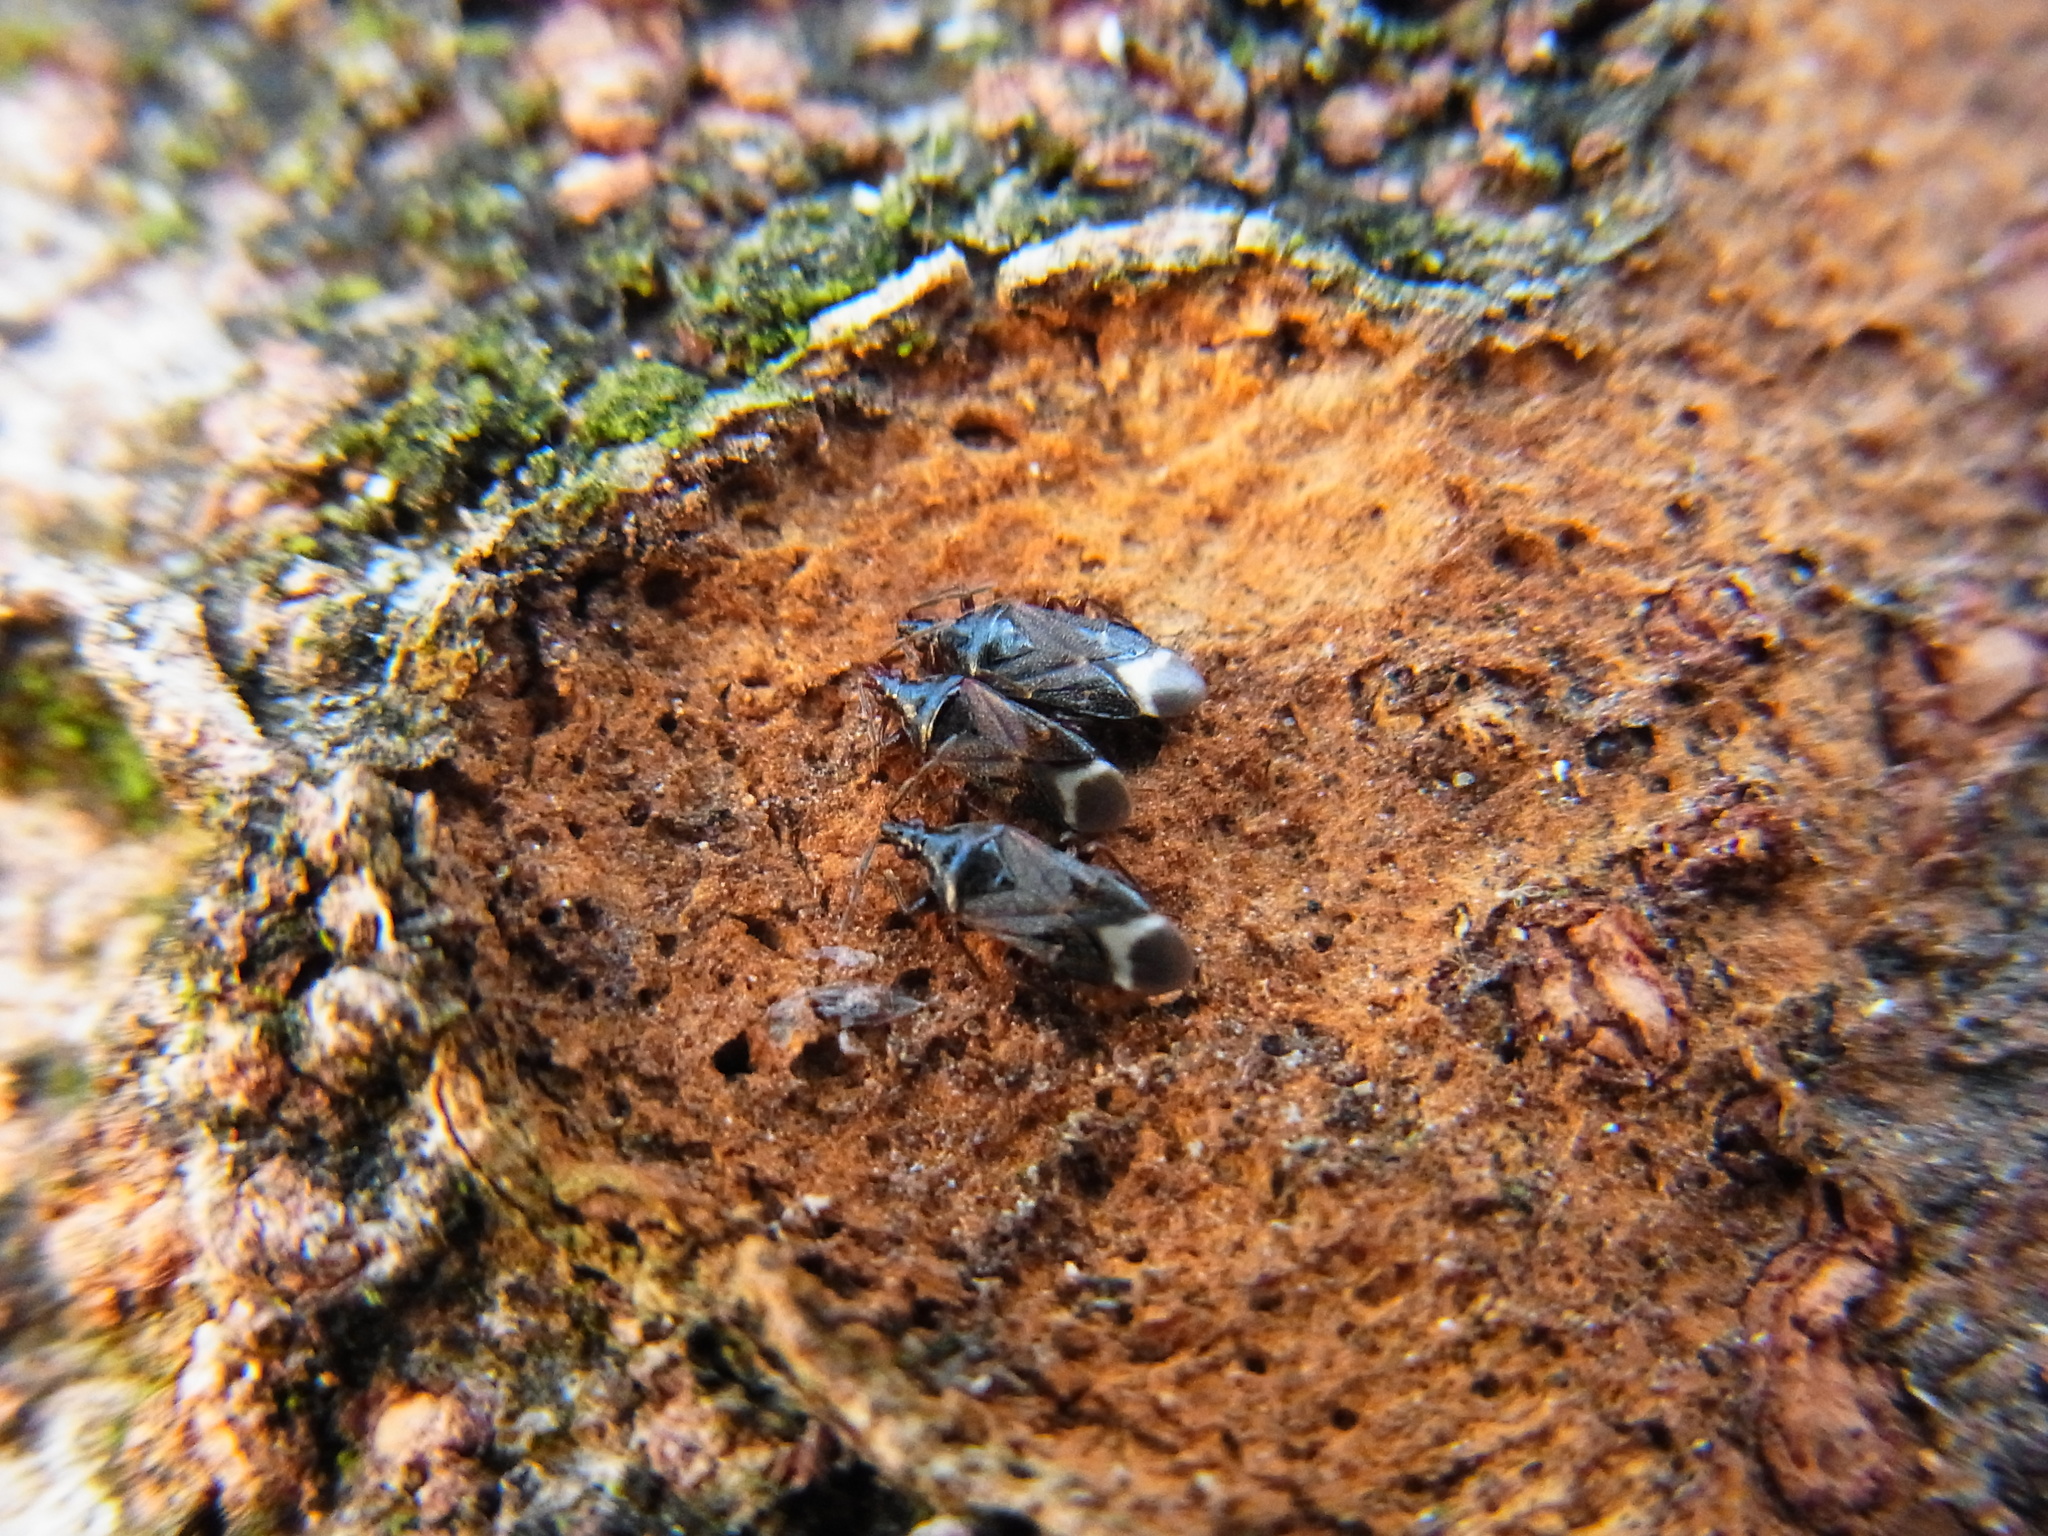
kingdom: Animalia
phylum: Arthropoda
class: Insecta
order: Hemiptera
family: Anthocoridae
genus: Anthocoris
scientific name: Anthocoris japonicus
